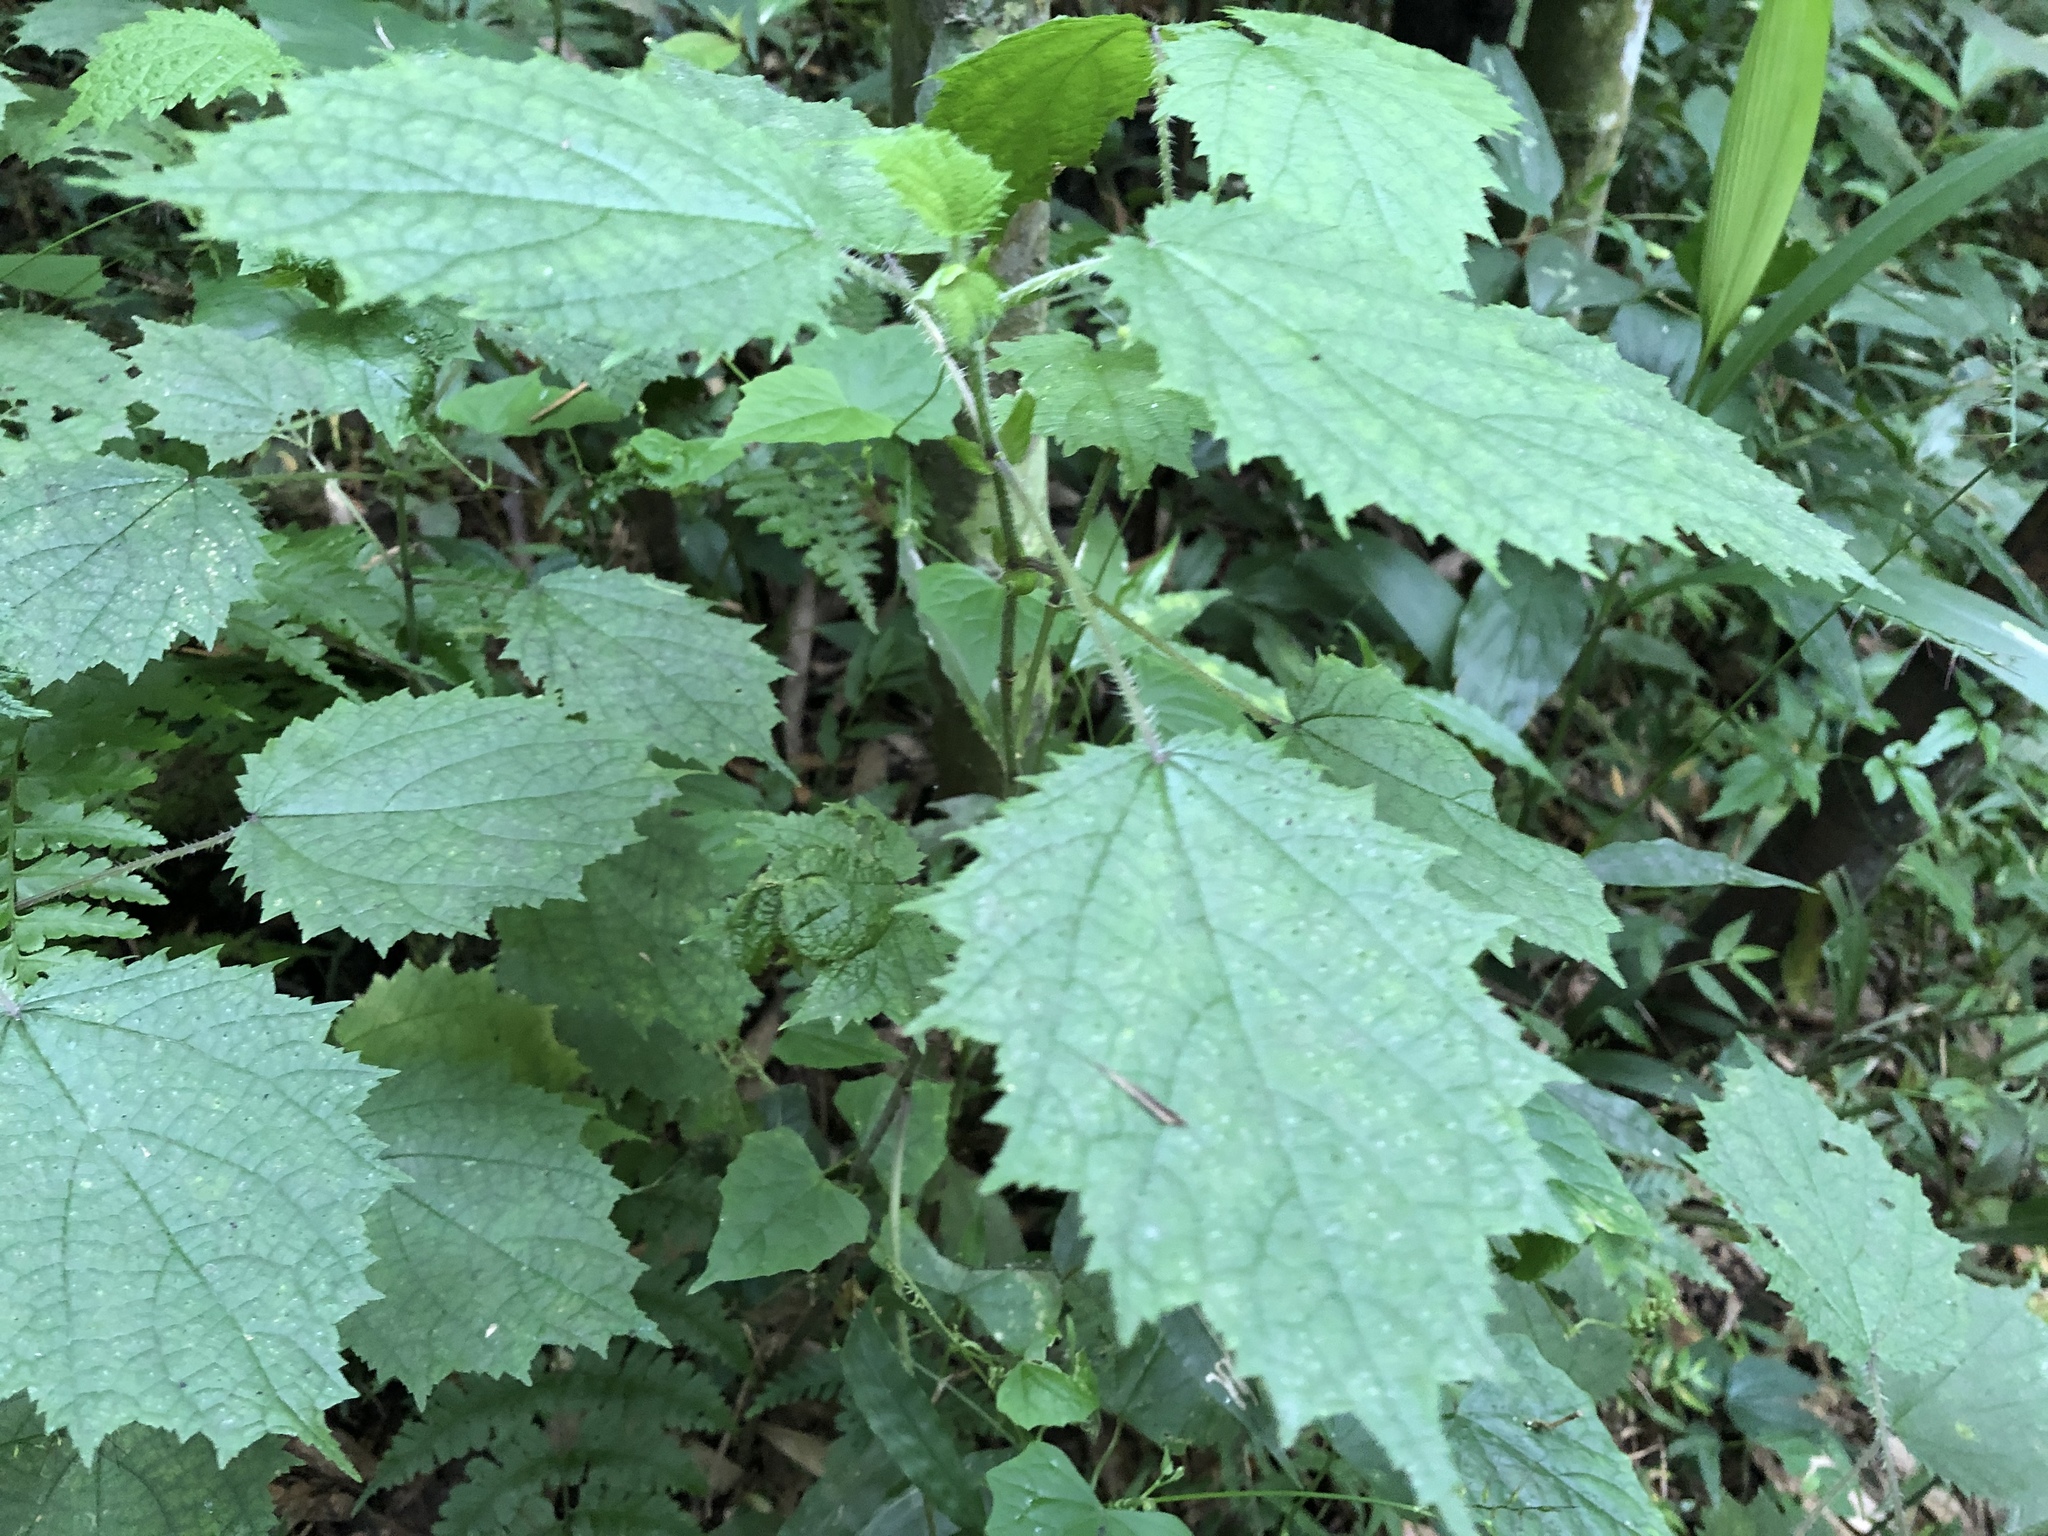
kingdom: Plantae
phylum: Tracheophyta
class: Magnoliopsida
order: Rosales
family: Urticaceae
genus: Urtica
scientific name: Urtica thunbergiana
